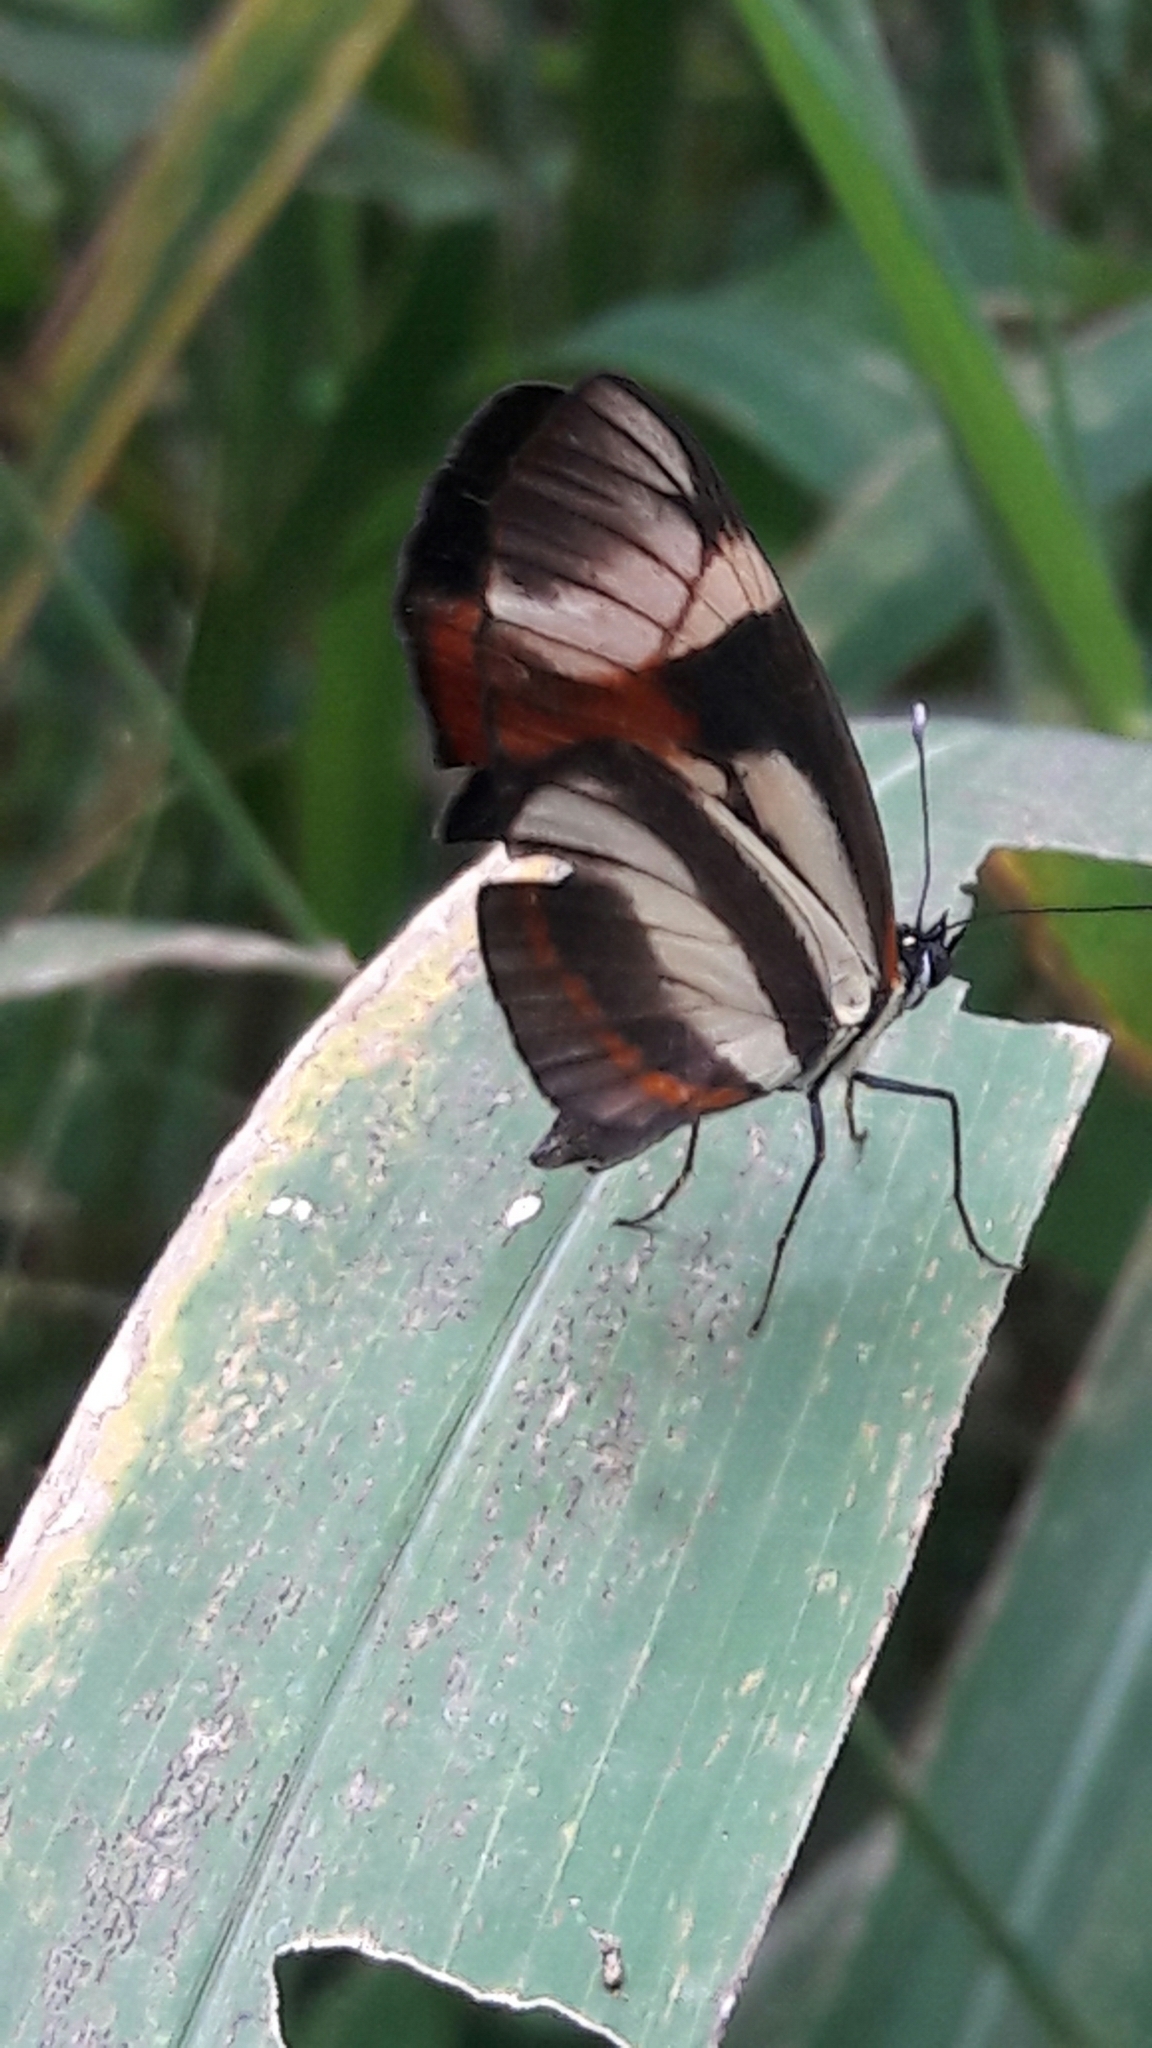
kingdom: Animalia
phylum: Arthropoda
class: Insecta
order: Lepidoptera
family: Nymphalidae
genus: Eresia
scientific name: Eresia lansdorfi
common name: Lansdorf's crescent
